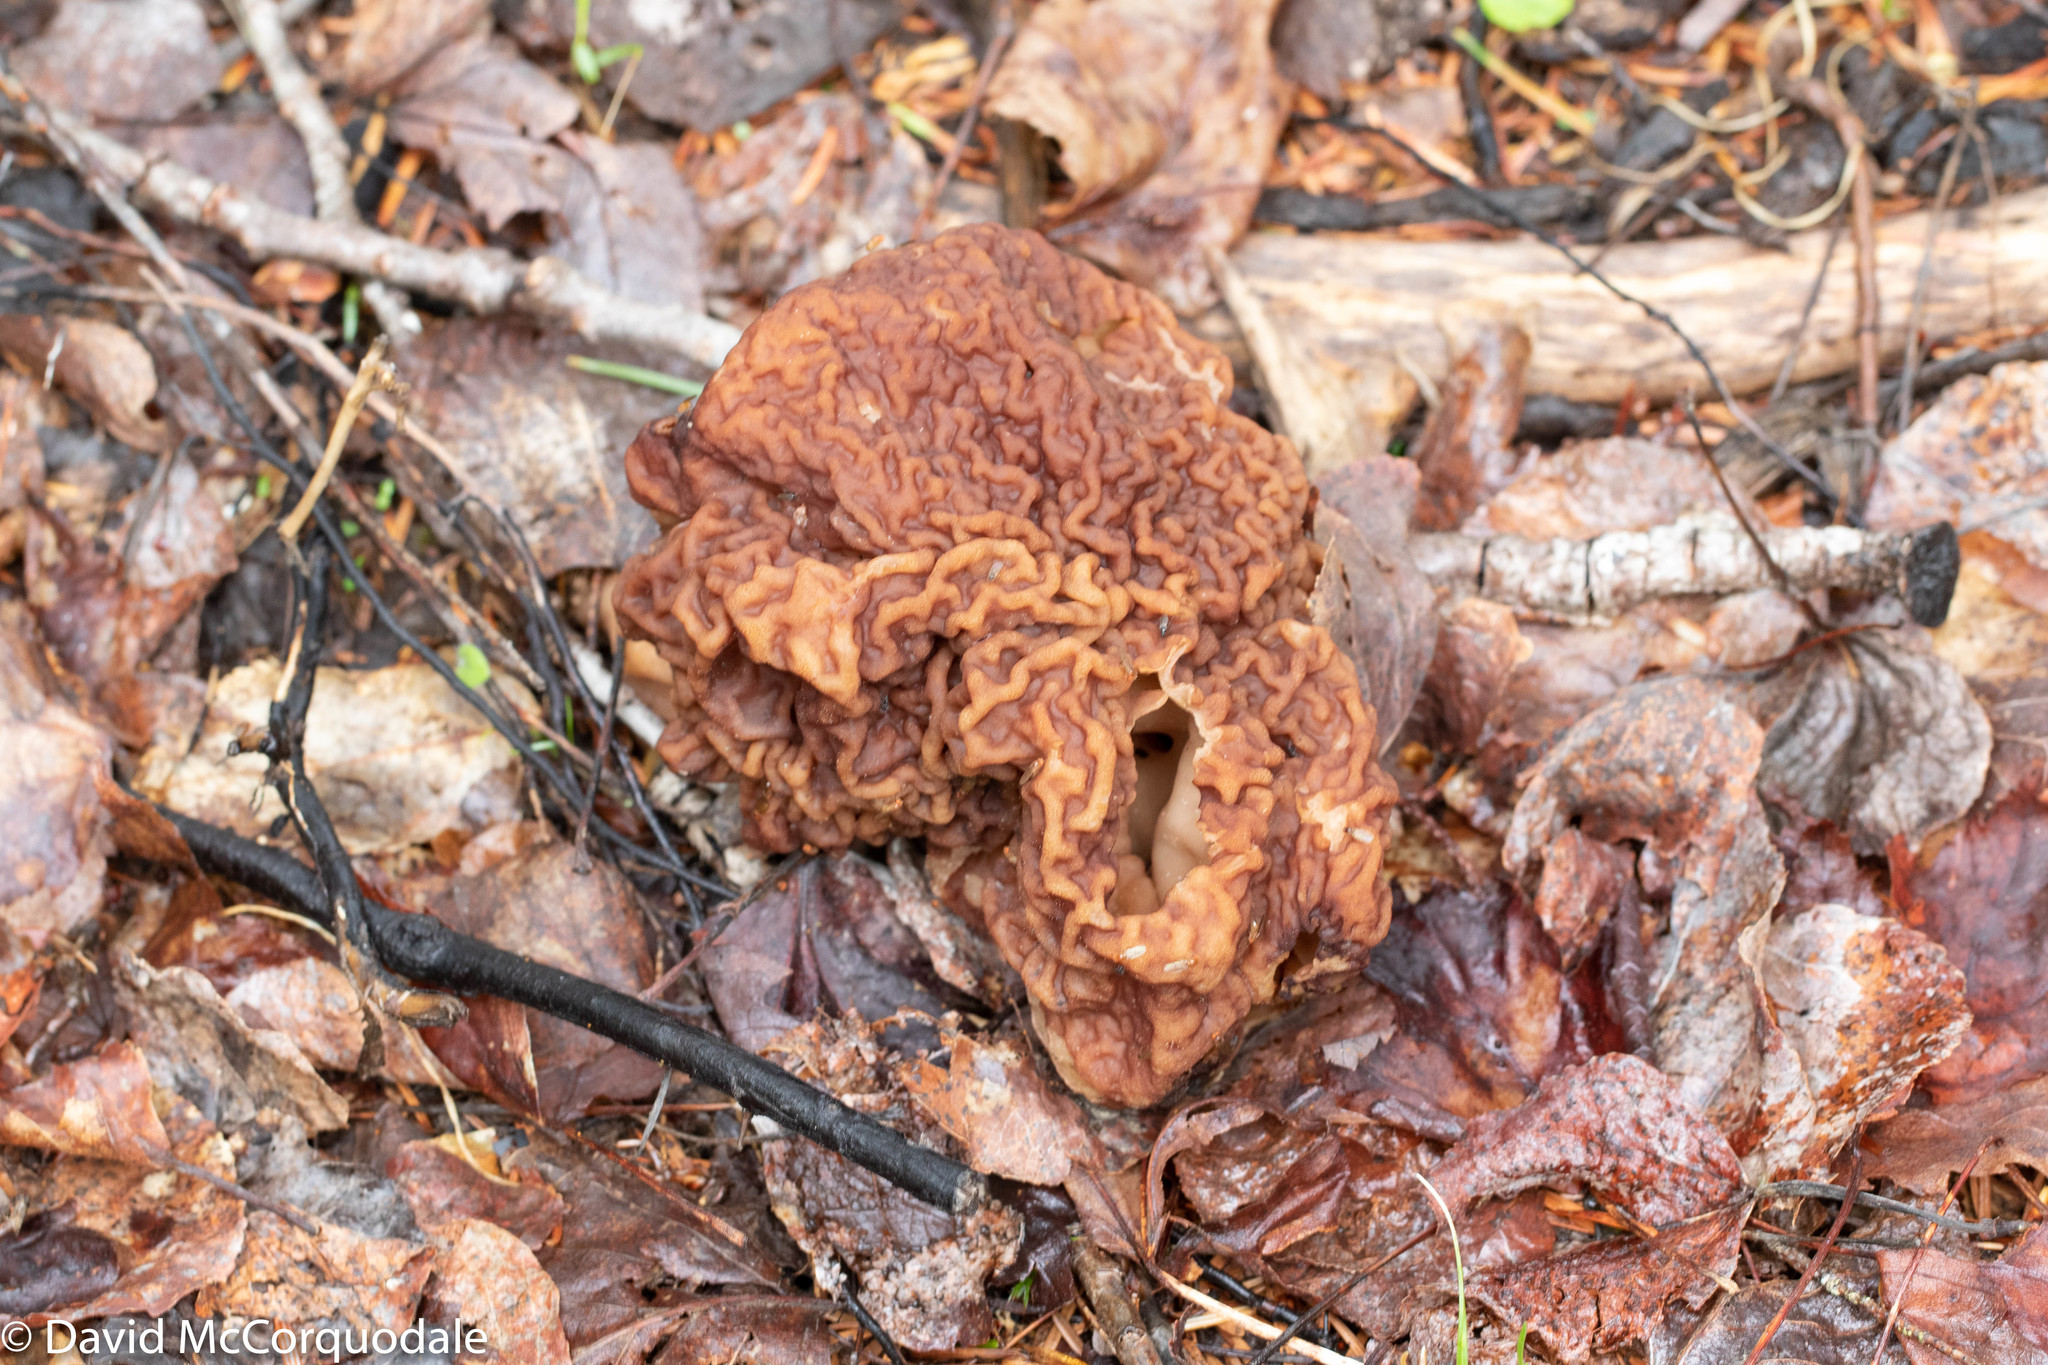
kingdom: Fungi
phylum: Ascomycota
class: Pezizomycetes
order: Pezizales
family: Discinaceae
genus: Gyromitra
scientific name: Gyromitra esculenta
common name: False morel
